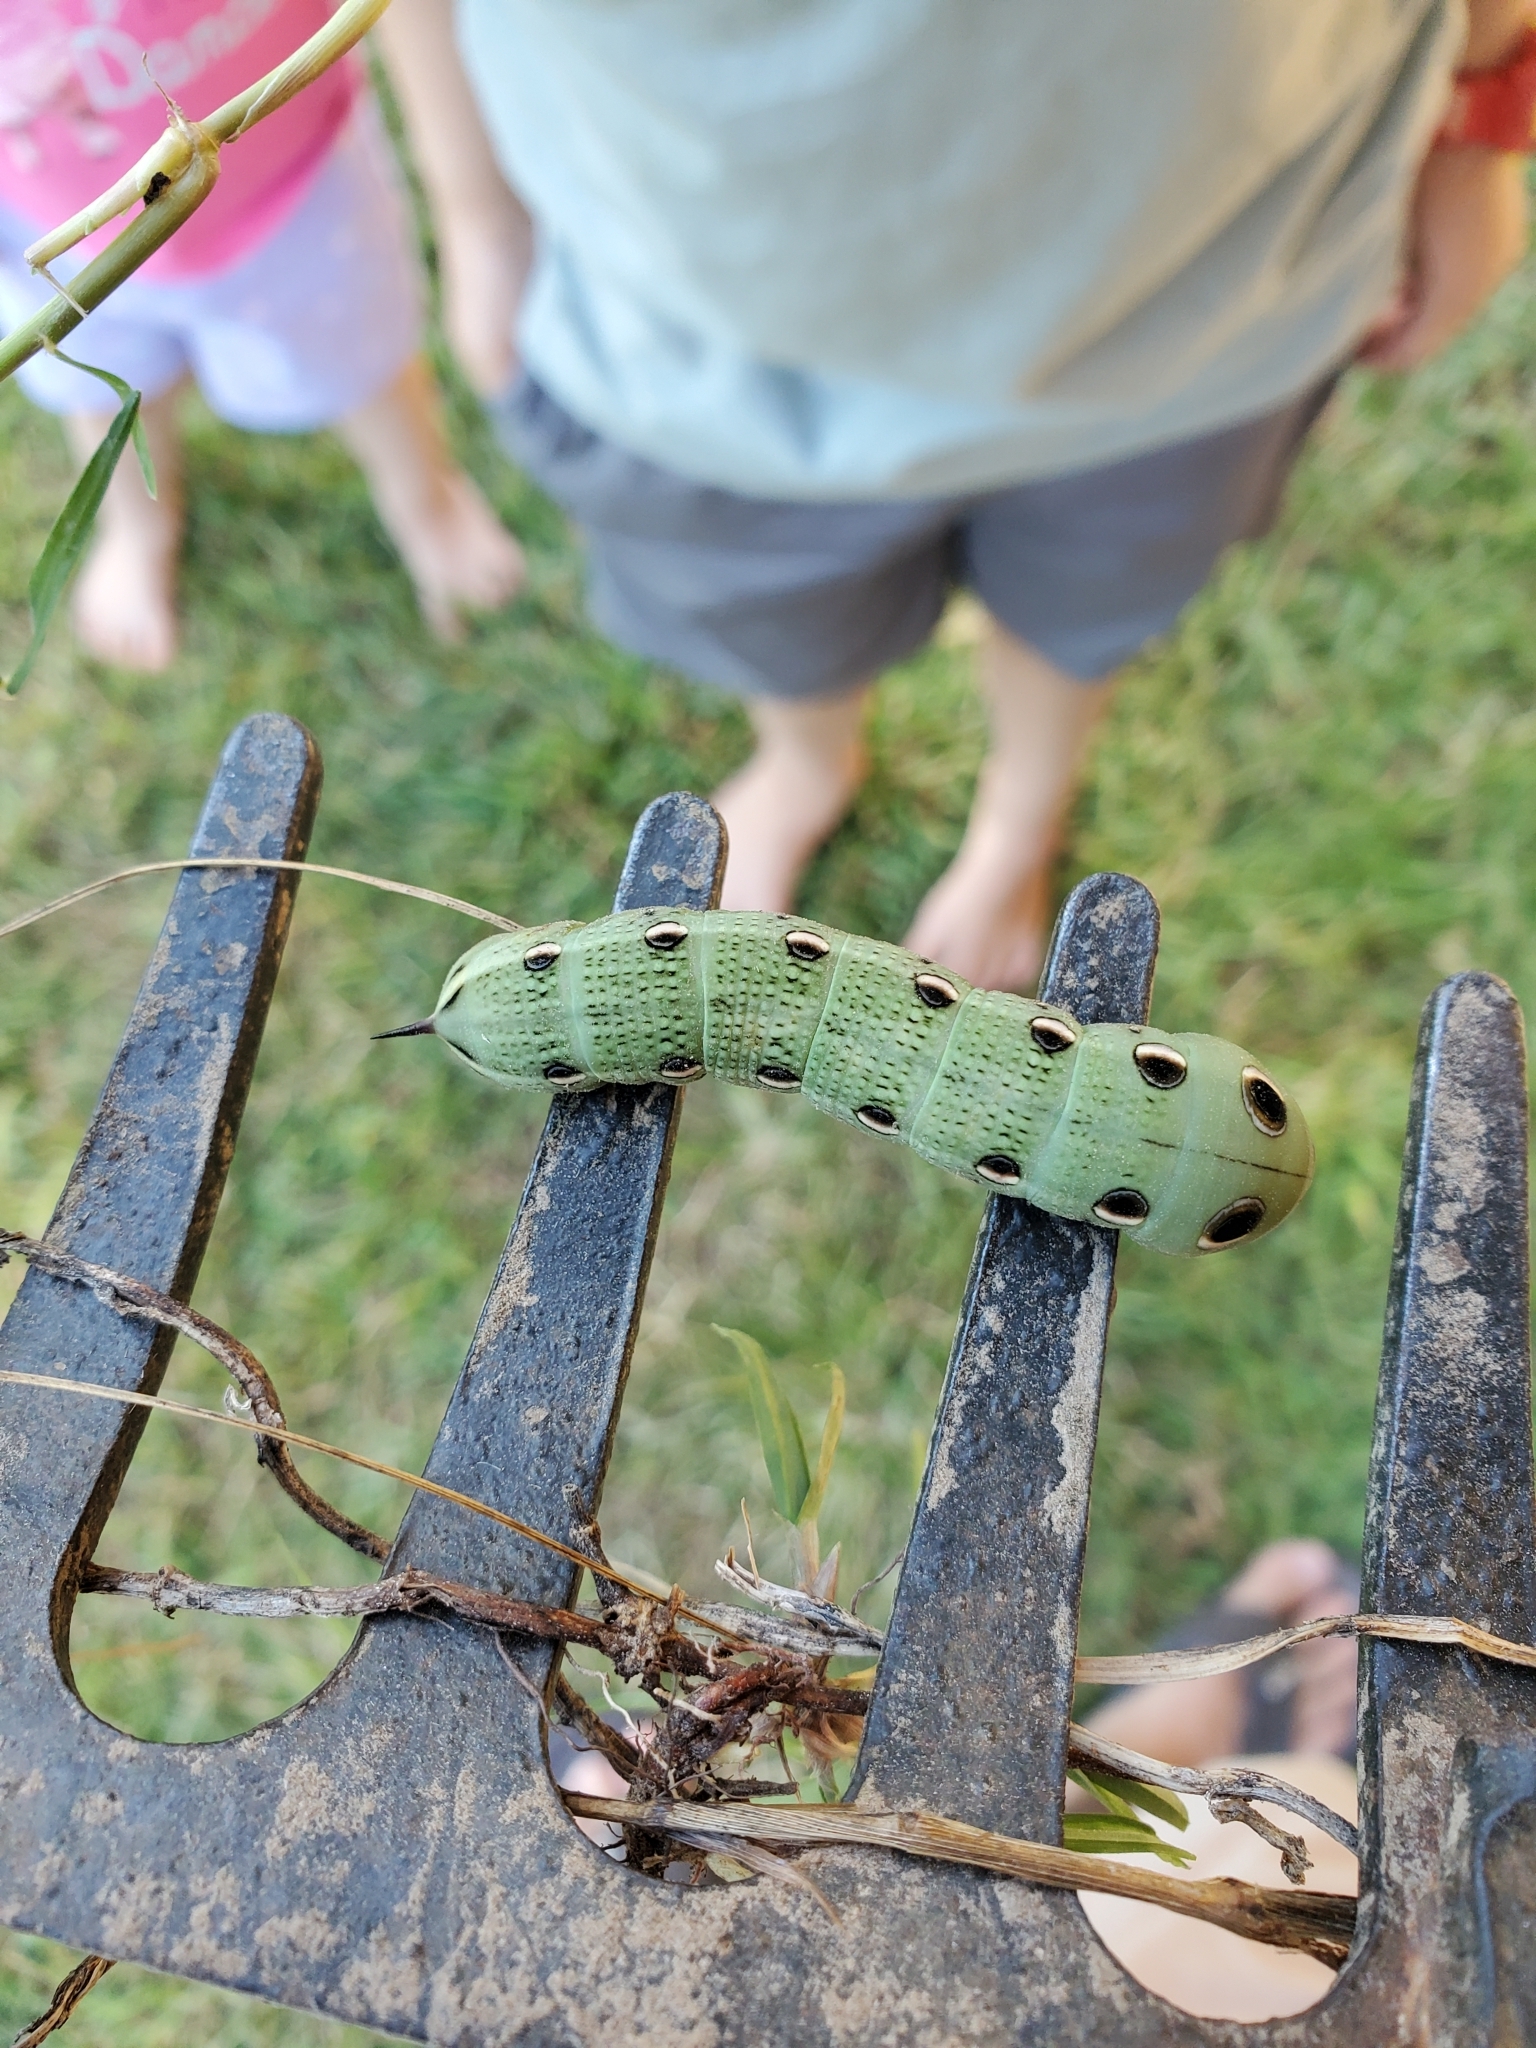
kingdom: Animalia
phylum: Arthropoda
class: Insecta
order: Lepidoptera
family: Sphingidae
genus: Xylophanes
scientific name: Xylophanes tersa
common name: Tersa sphinx
